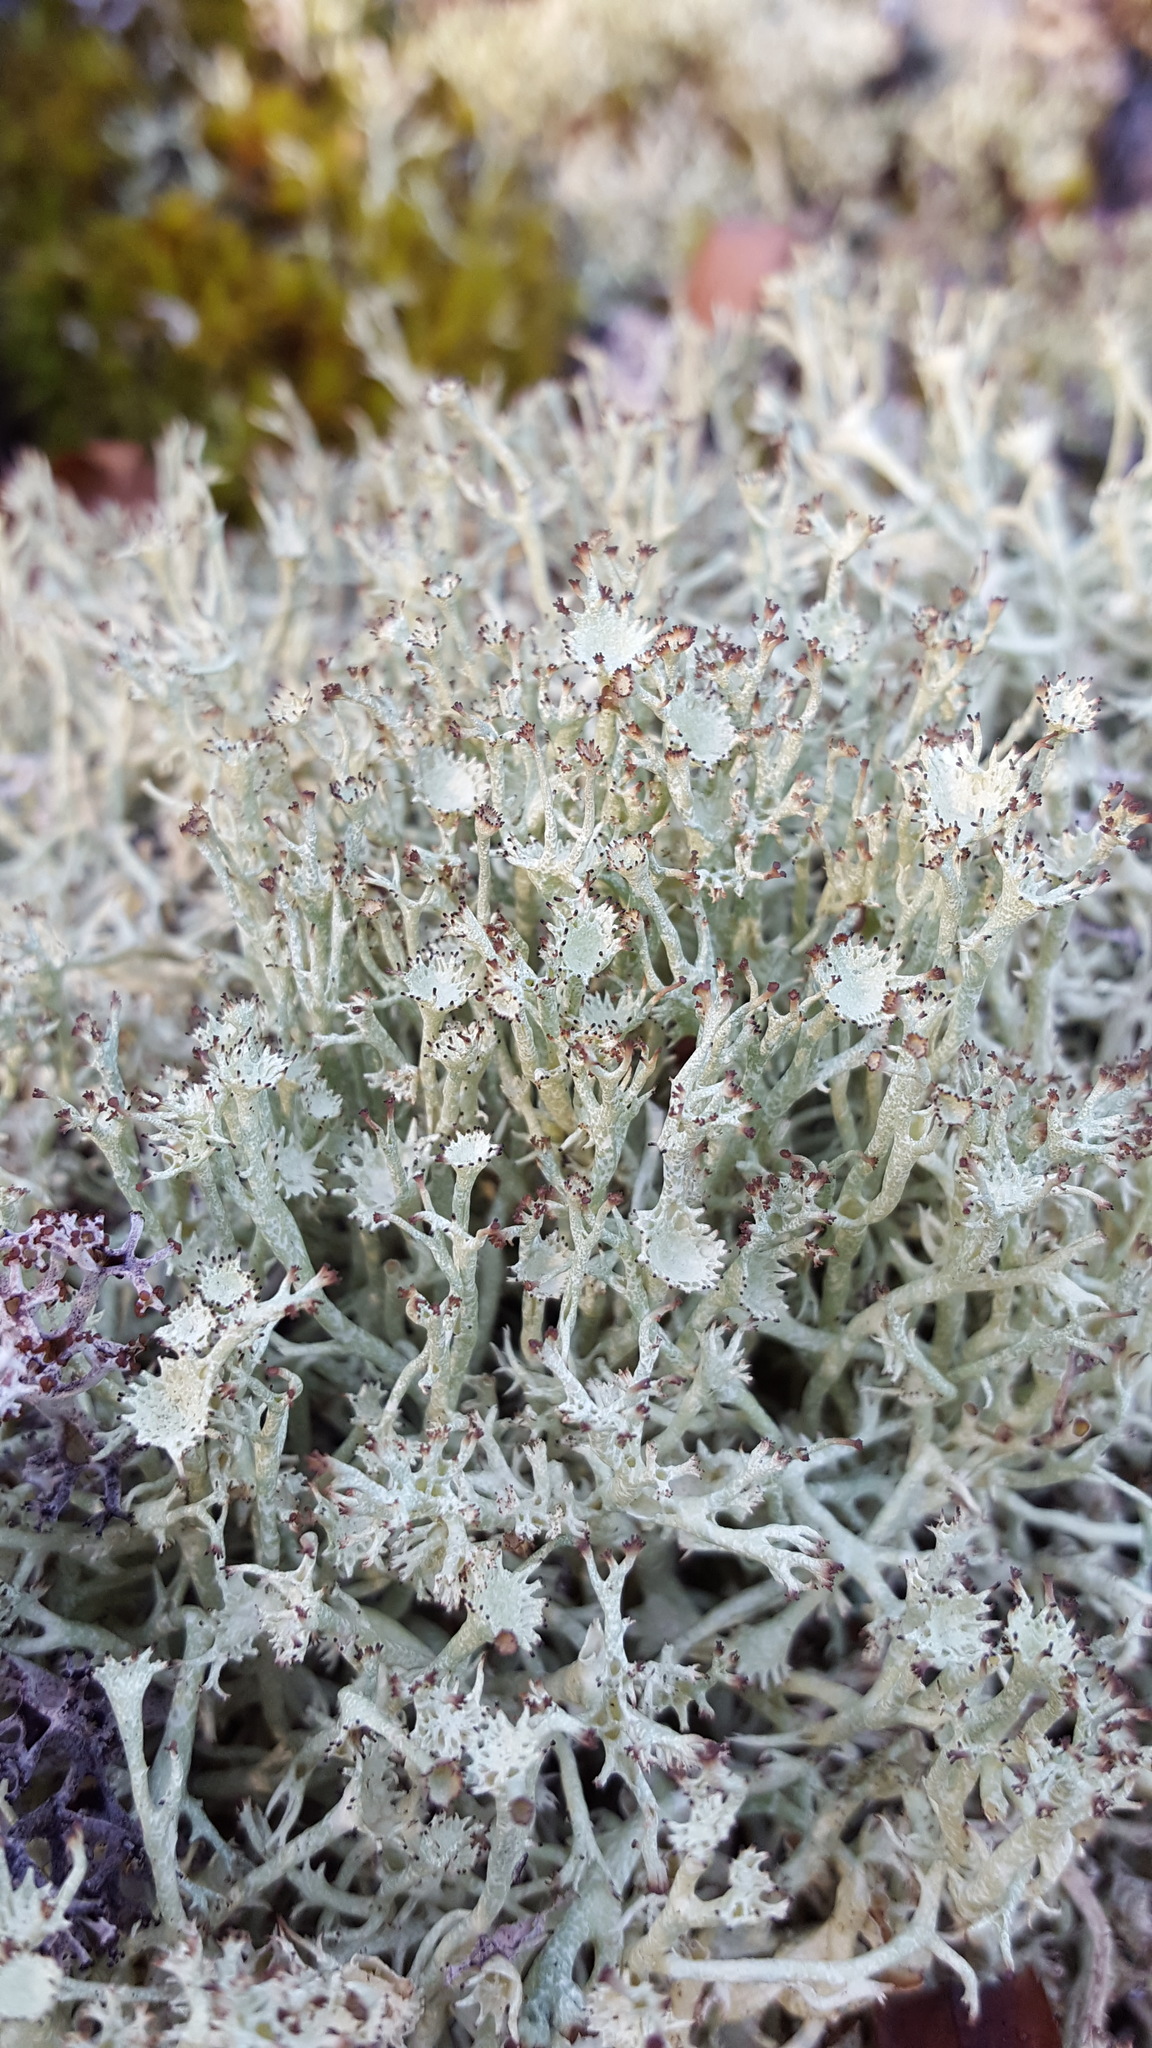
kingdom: Fungi
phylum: Ascomycota
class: Lecanoromycetes
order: Lecanorales
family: Cladoniaceae
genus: Cladonia
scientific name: Cladonia amaurocraea
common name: Quill lichen
